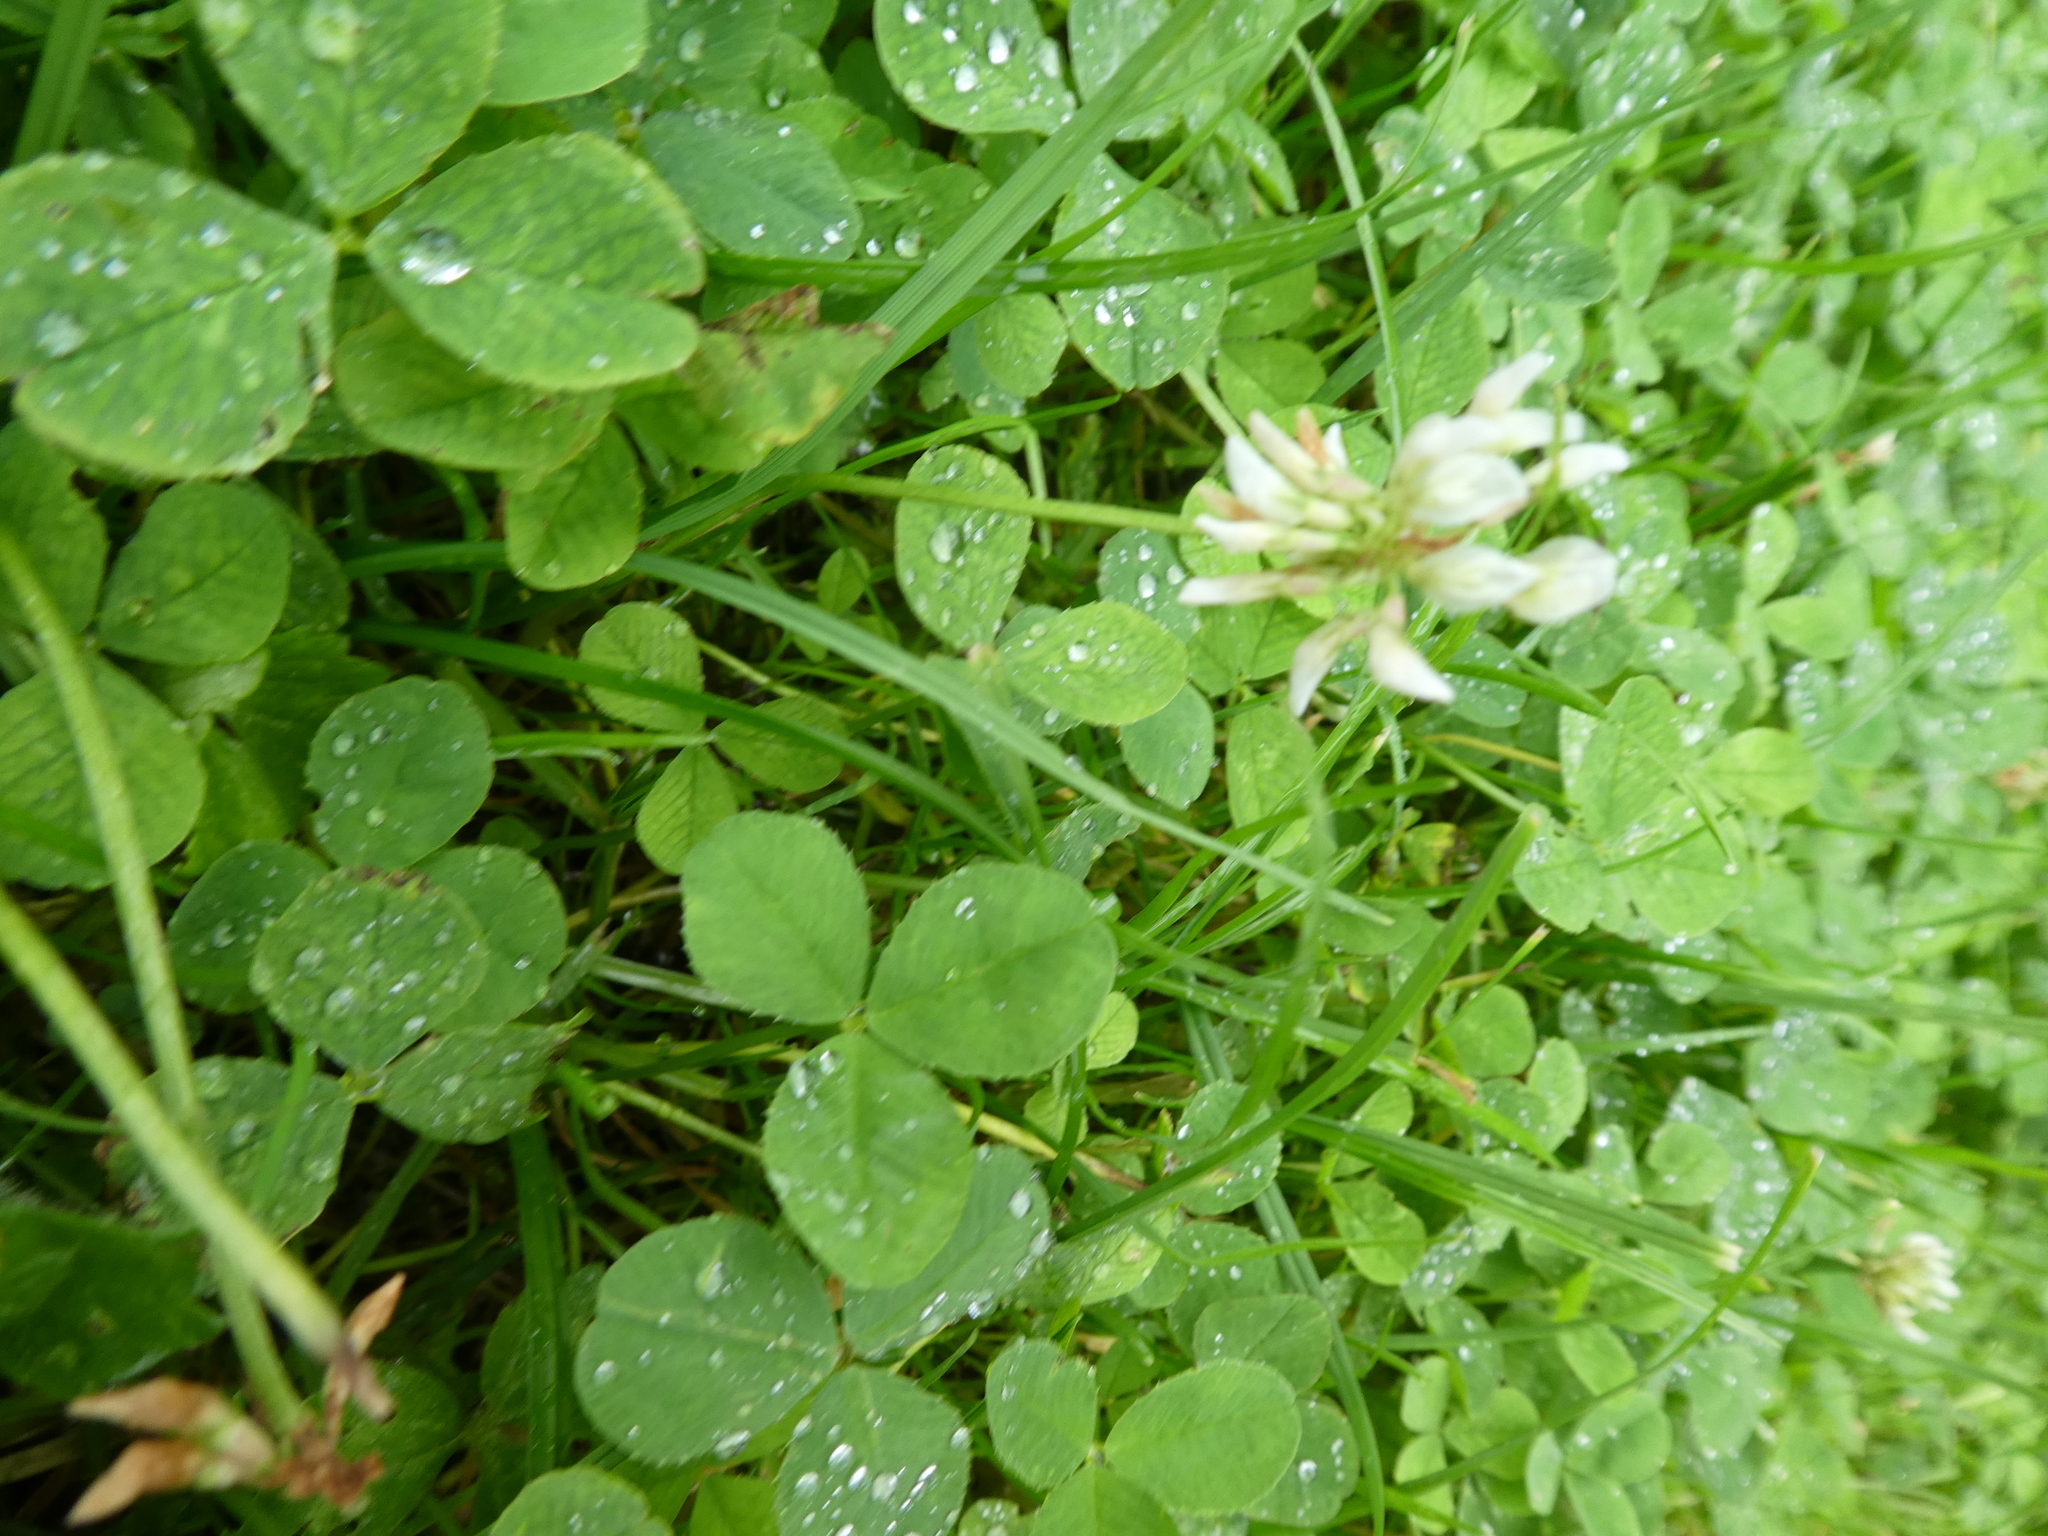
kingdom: Plantae
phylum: Tracheophyta
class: Magnoliopsida
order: Fabales
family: Fabaceae
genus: Trifolium
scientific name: Trifolium repens
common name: White clover
